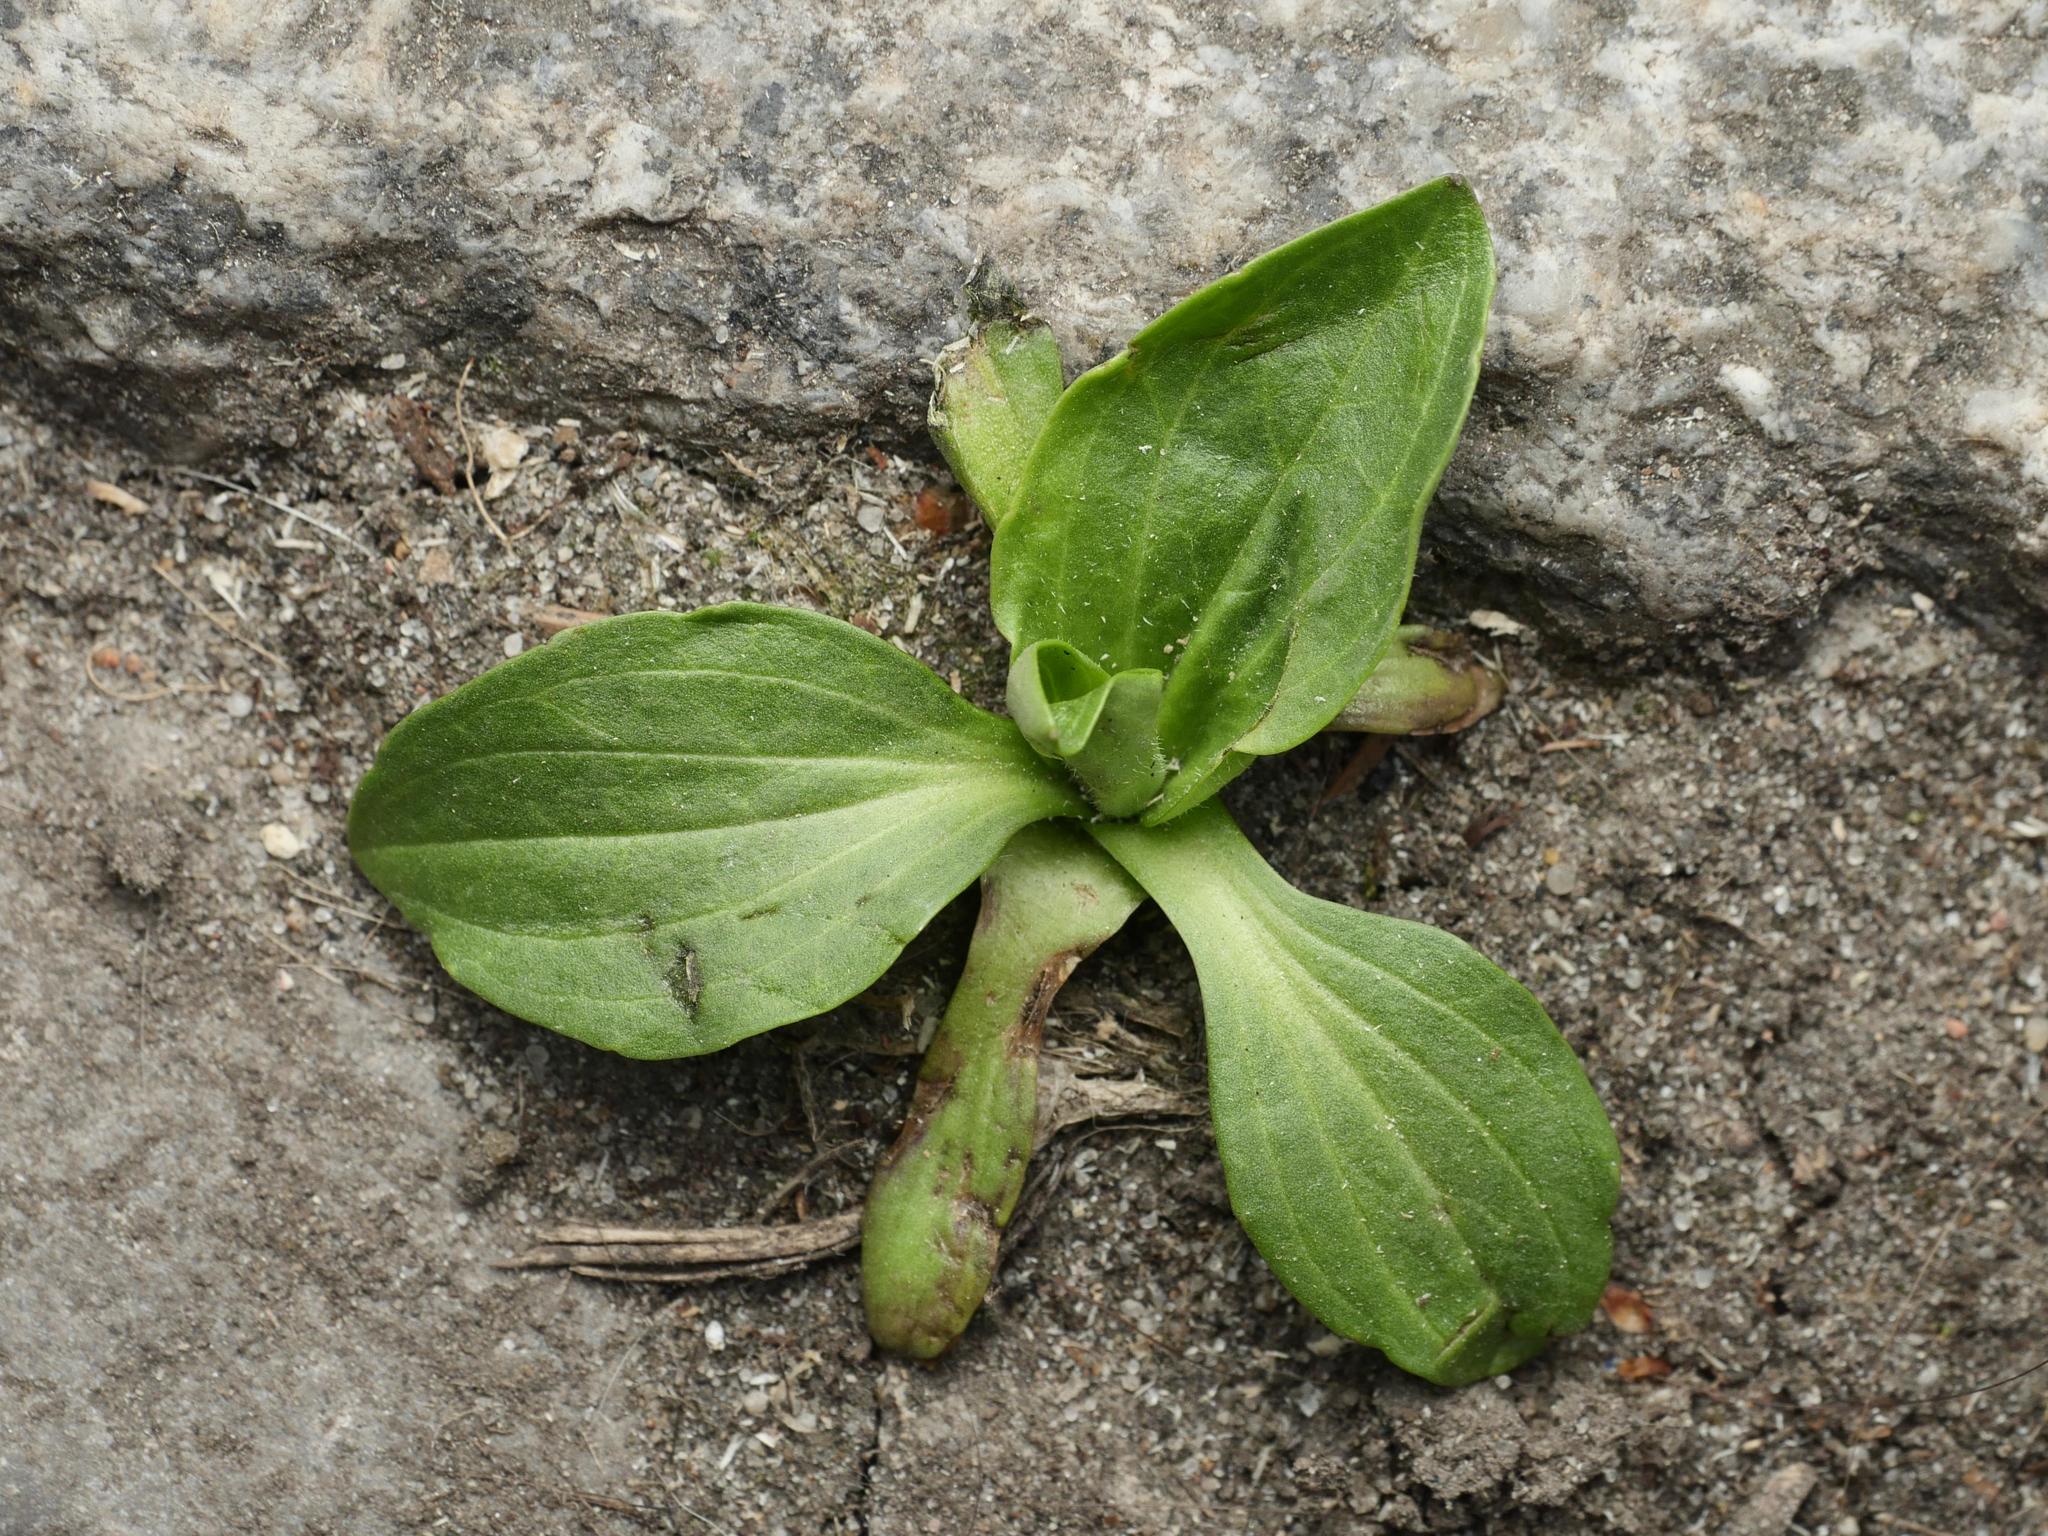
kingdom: Plantae
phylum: Tracheophyta
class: Magnoliopsida
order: Lamiales
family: Plantaginaceae
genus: Plantago
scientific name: Plantago major
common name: Common plantain
